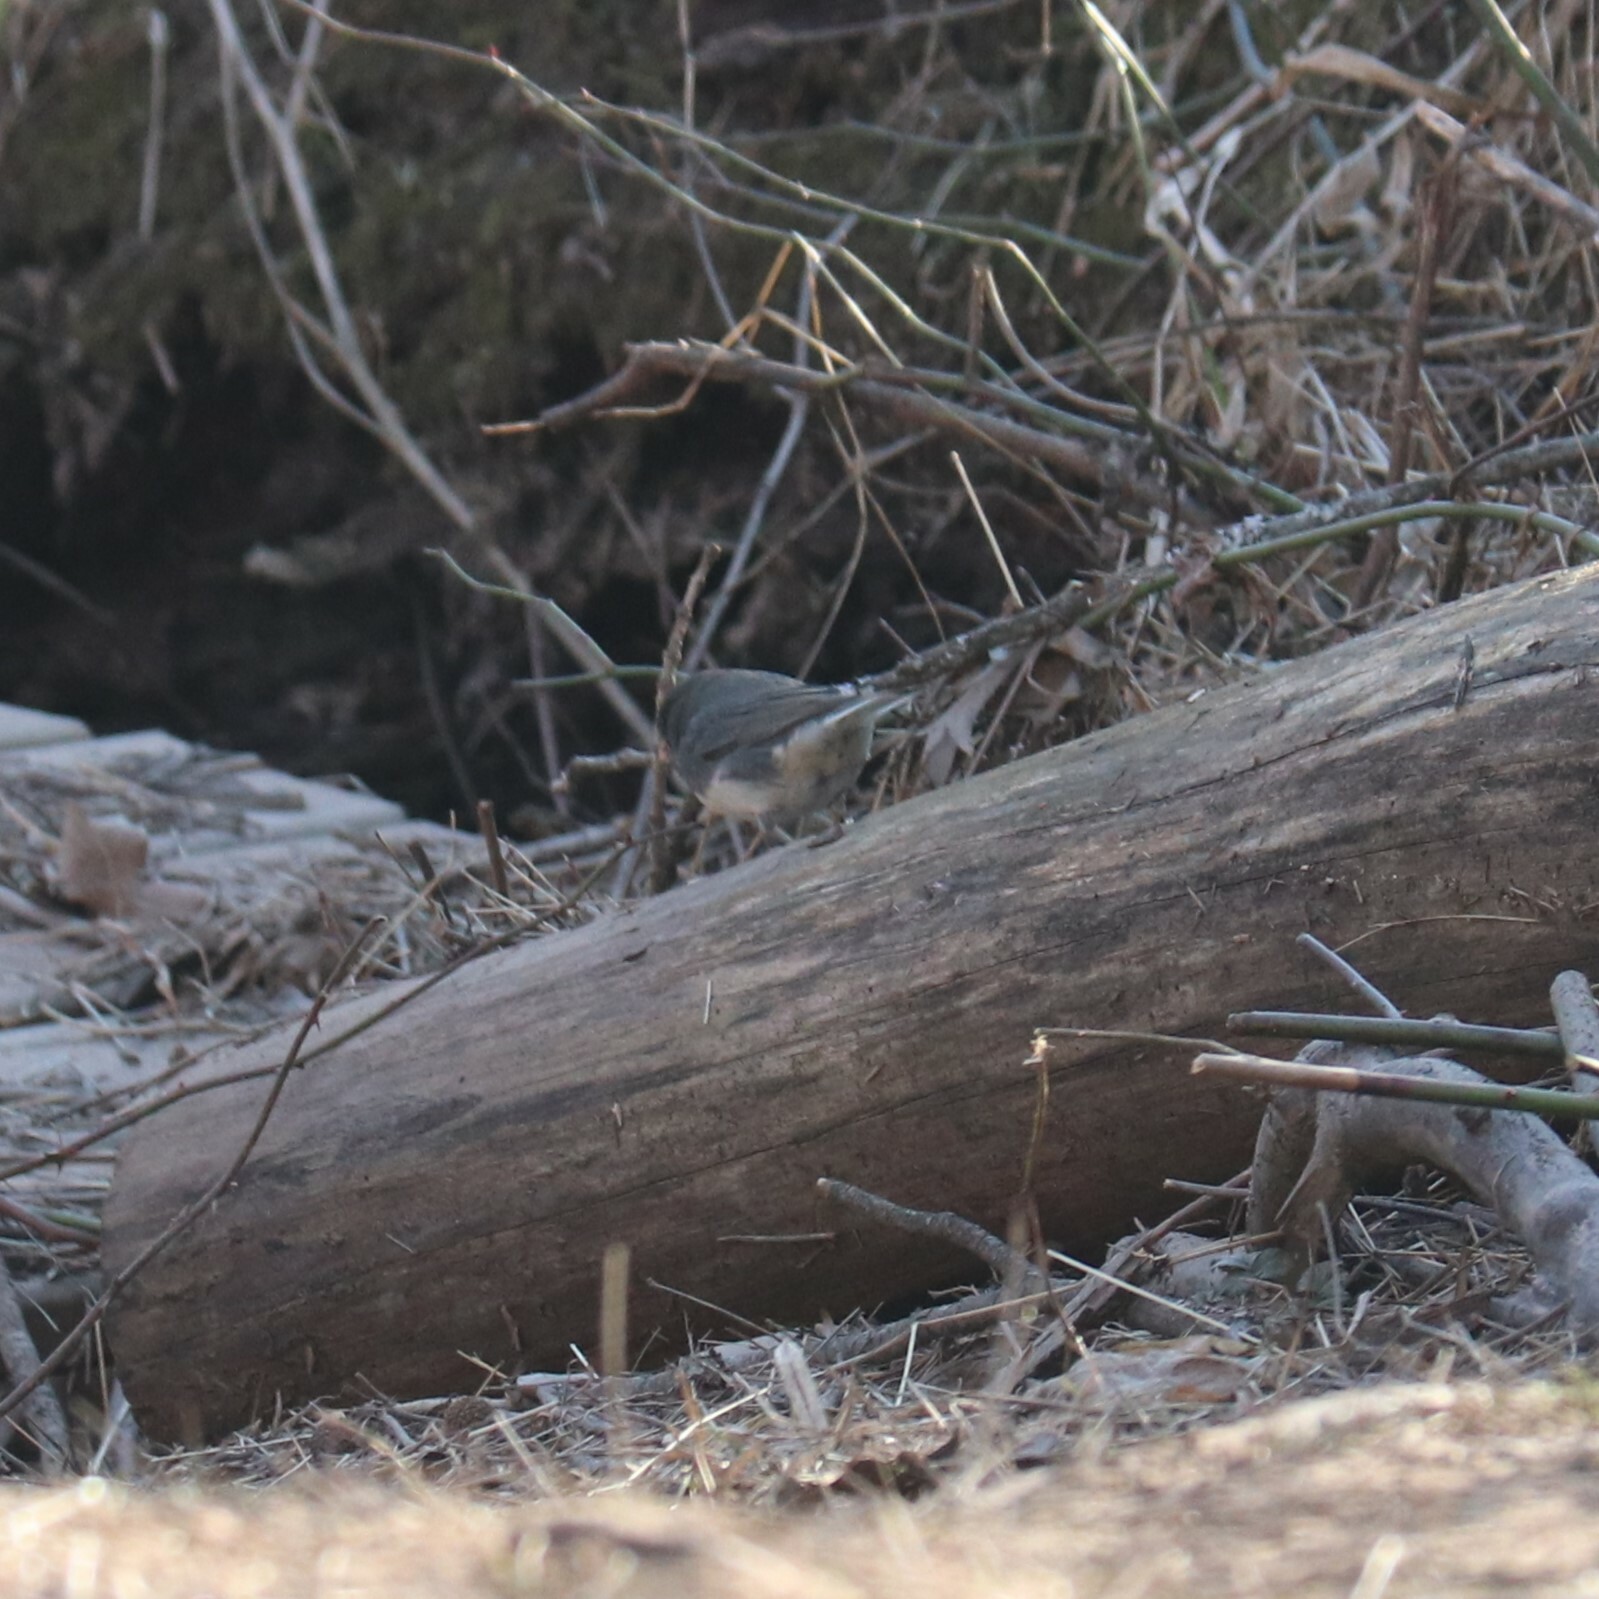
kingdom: Animalia
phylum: Chordata
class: Aves
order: Passeriformes
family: Passerellidae
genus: Junco
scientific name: Junco hyemalis
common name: Dark-eyed junco
